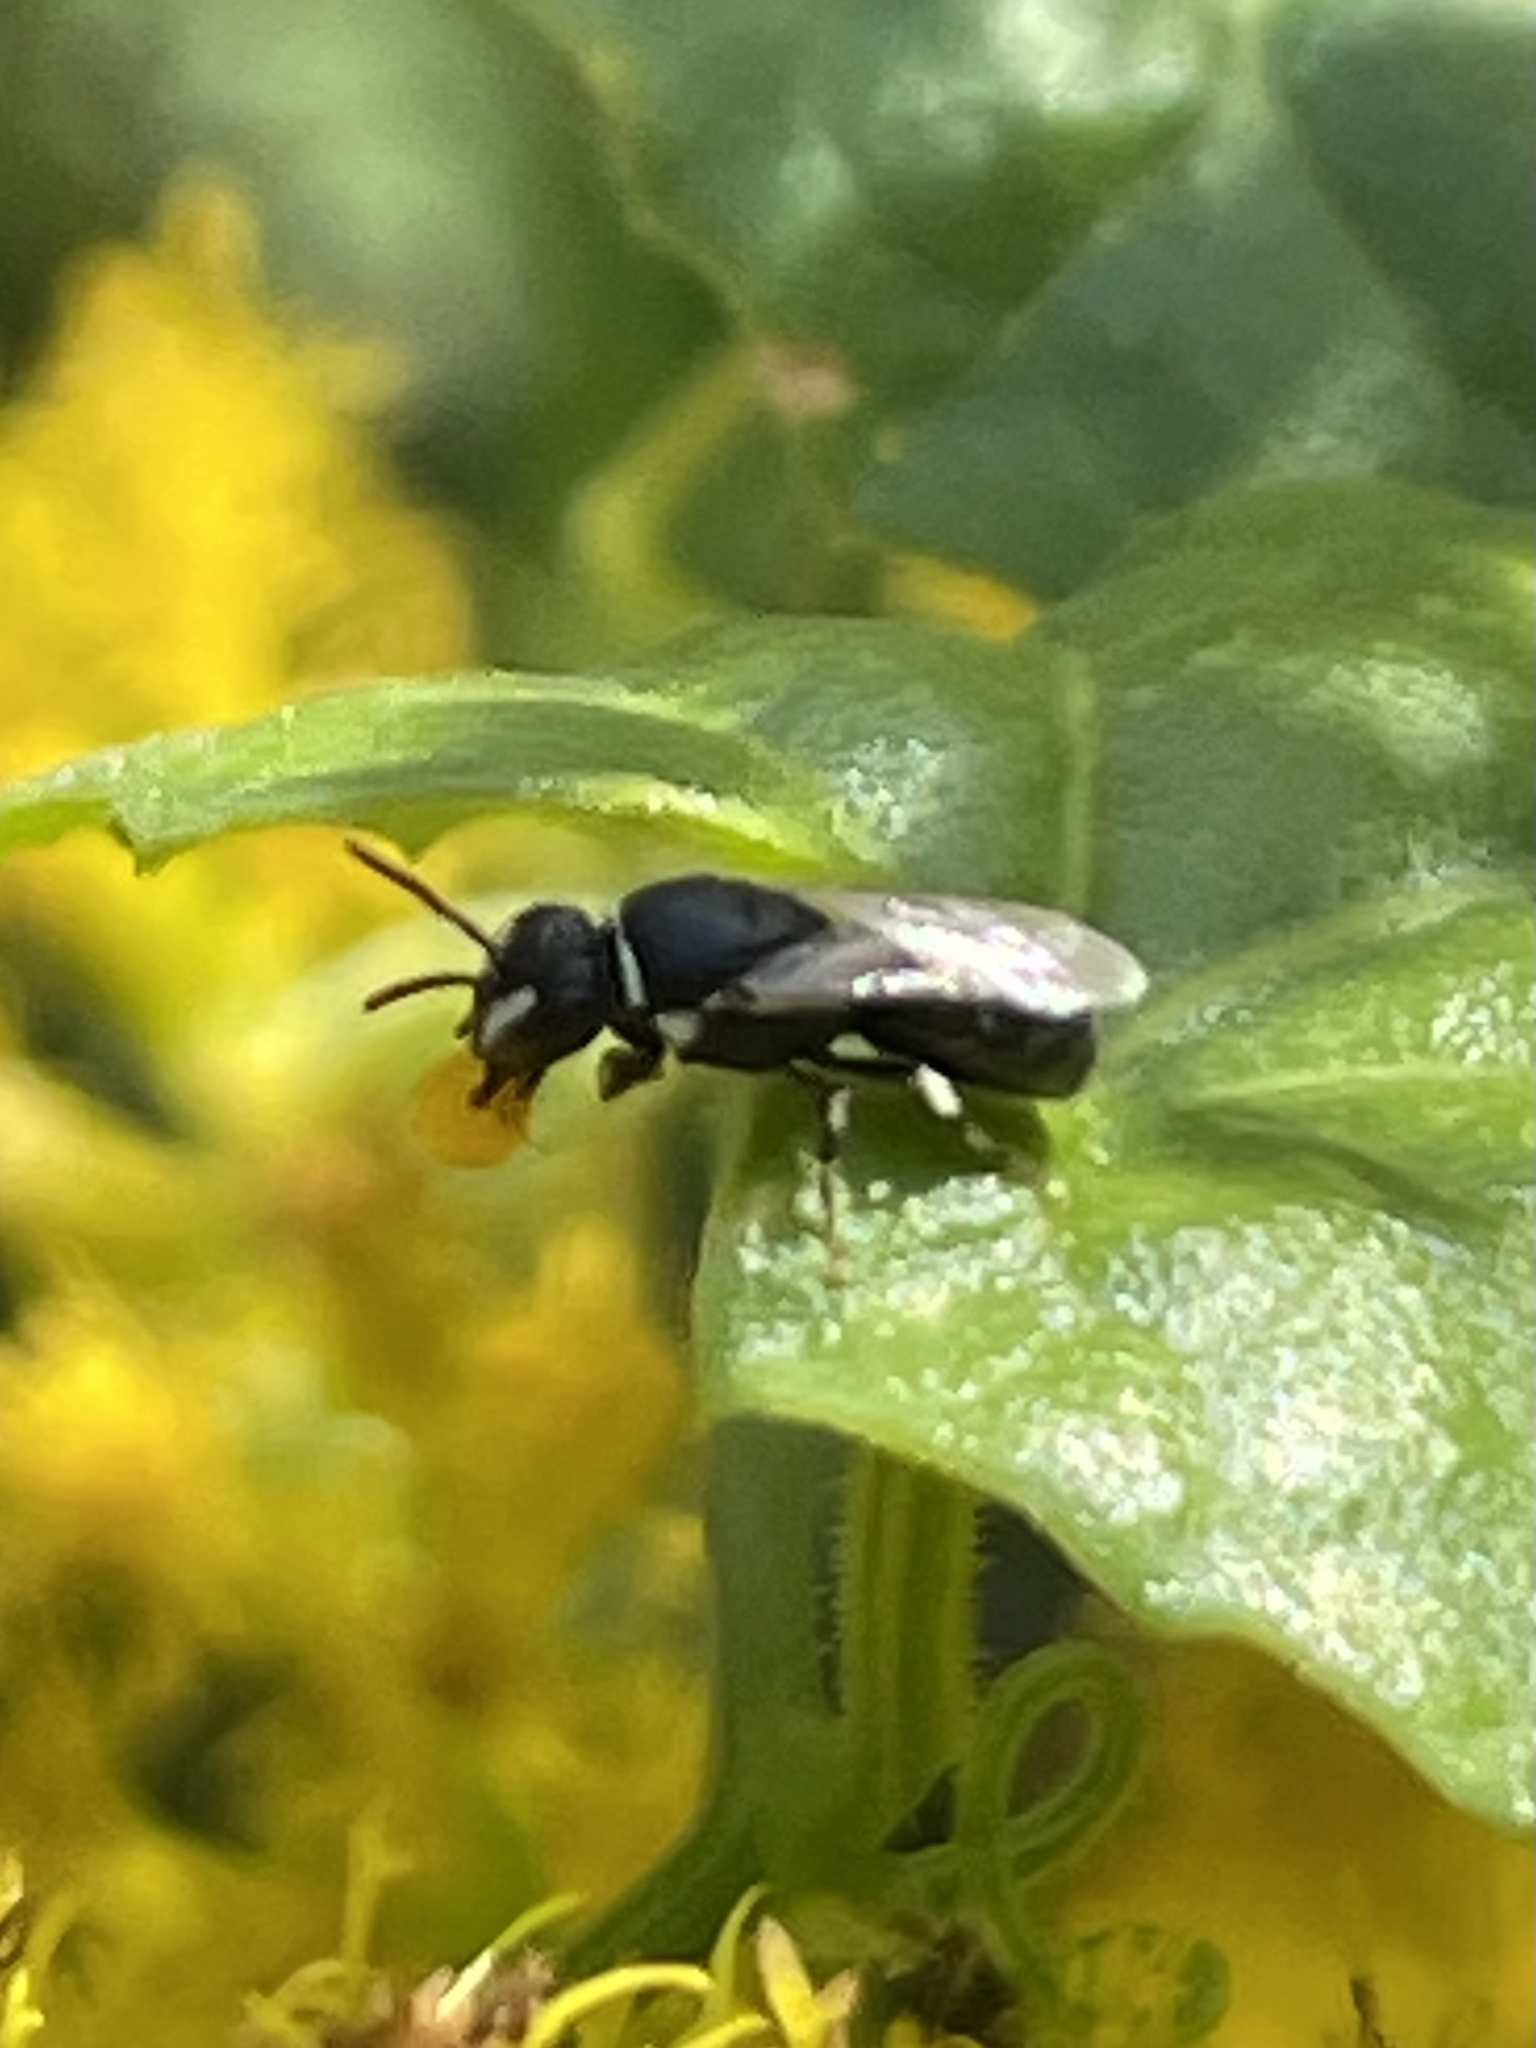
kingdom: Animalia
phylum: Arthropoda
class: Insecta
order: Hymenoptera
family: Colletidae
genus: Hylaeus
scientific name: Hylaeus
